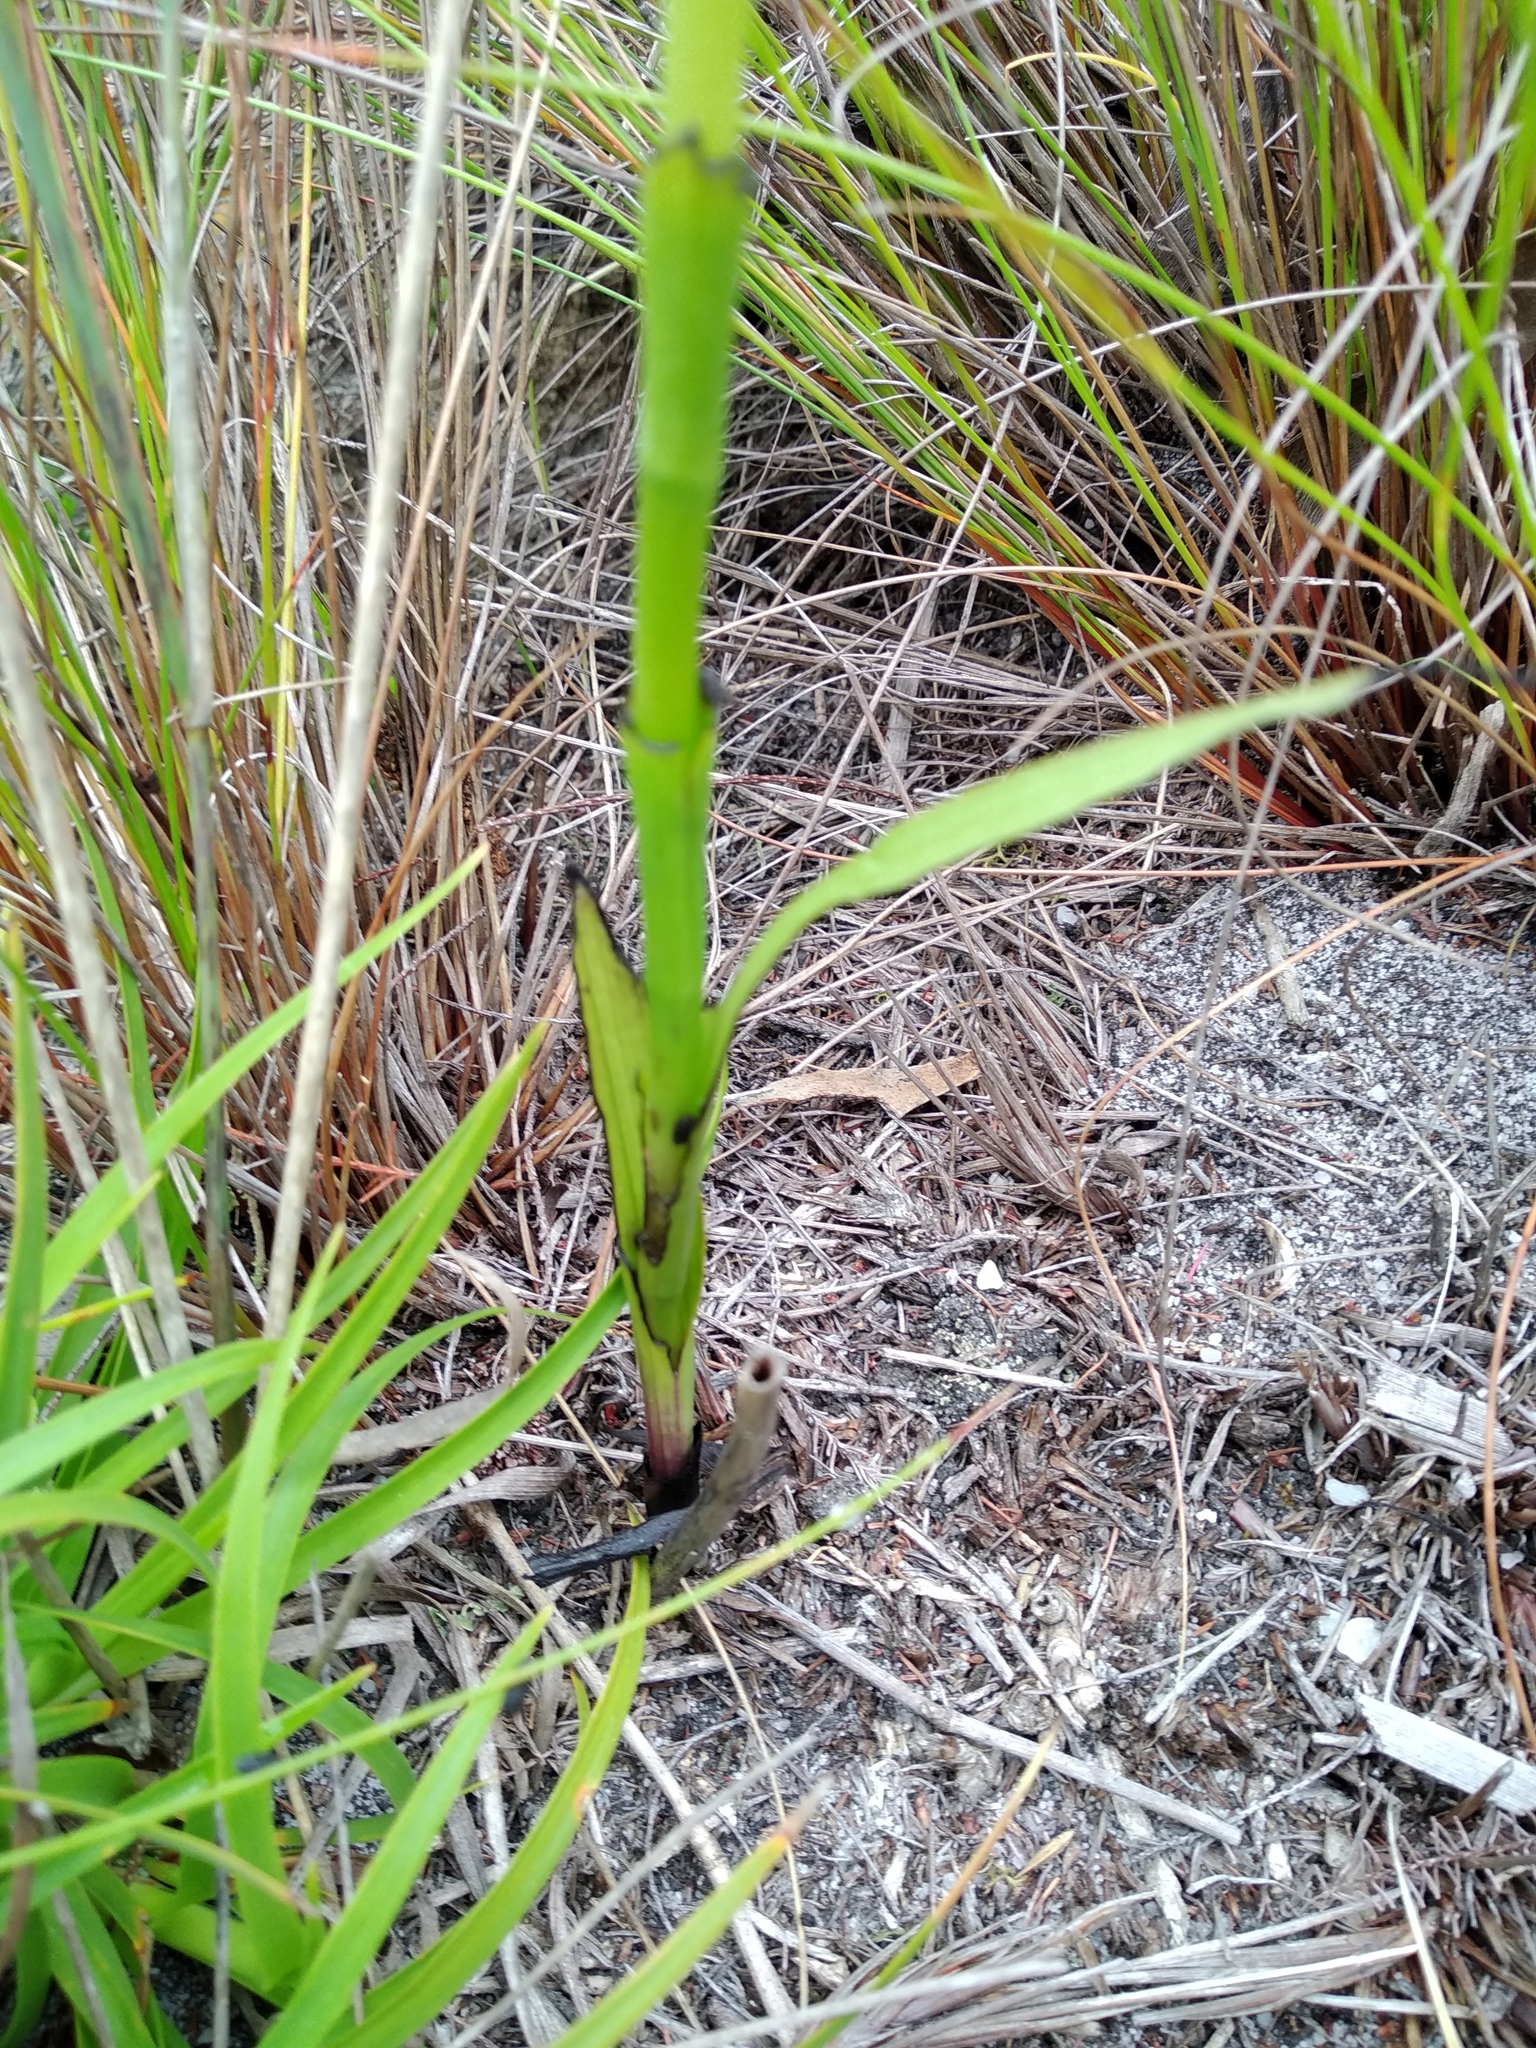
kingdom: Plantae
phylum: Tracheophyta
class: Liliopsida
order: Asparagales
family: Orchidaceae
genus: Evotella
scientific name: Evotella carnosa
